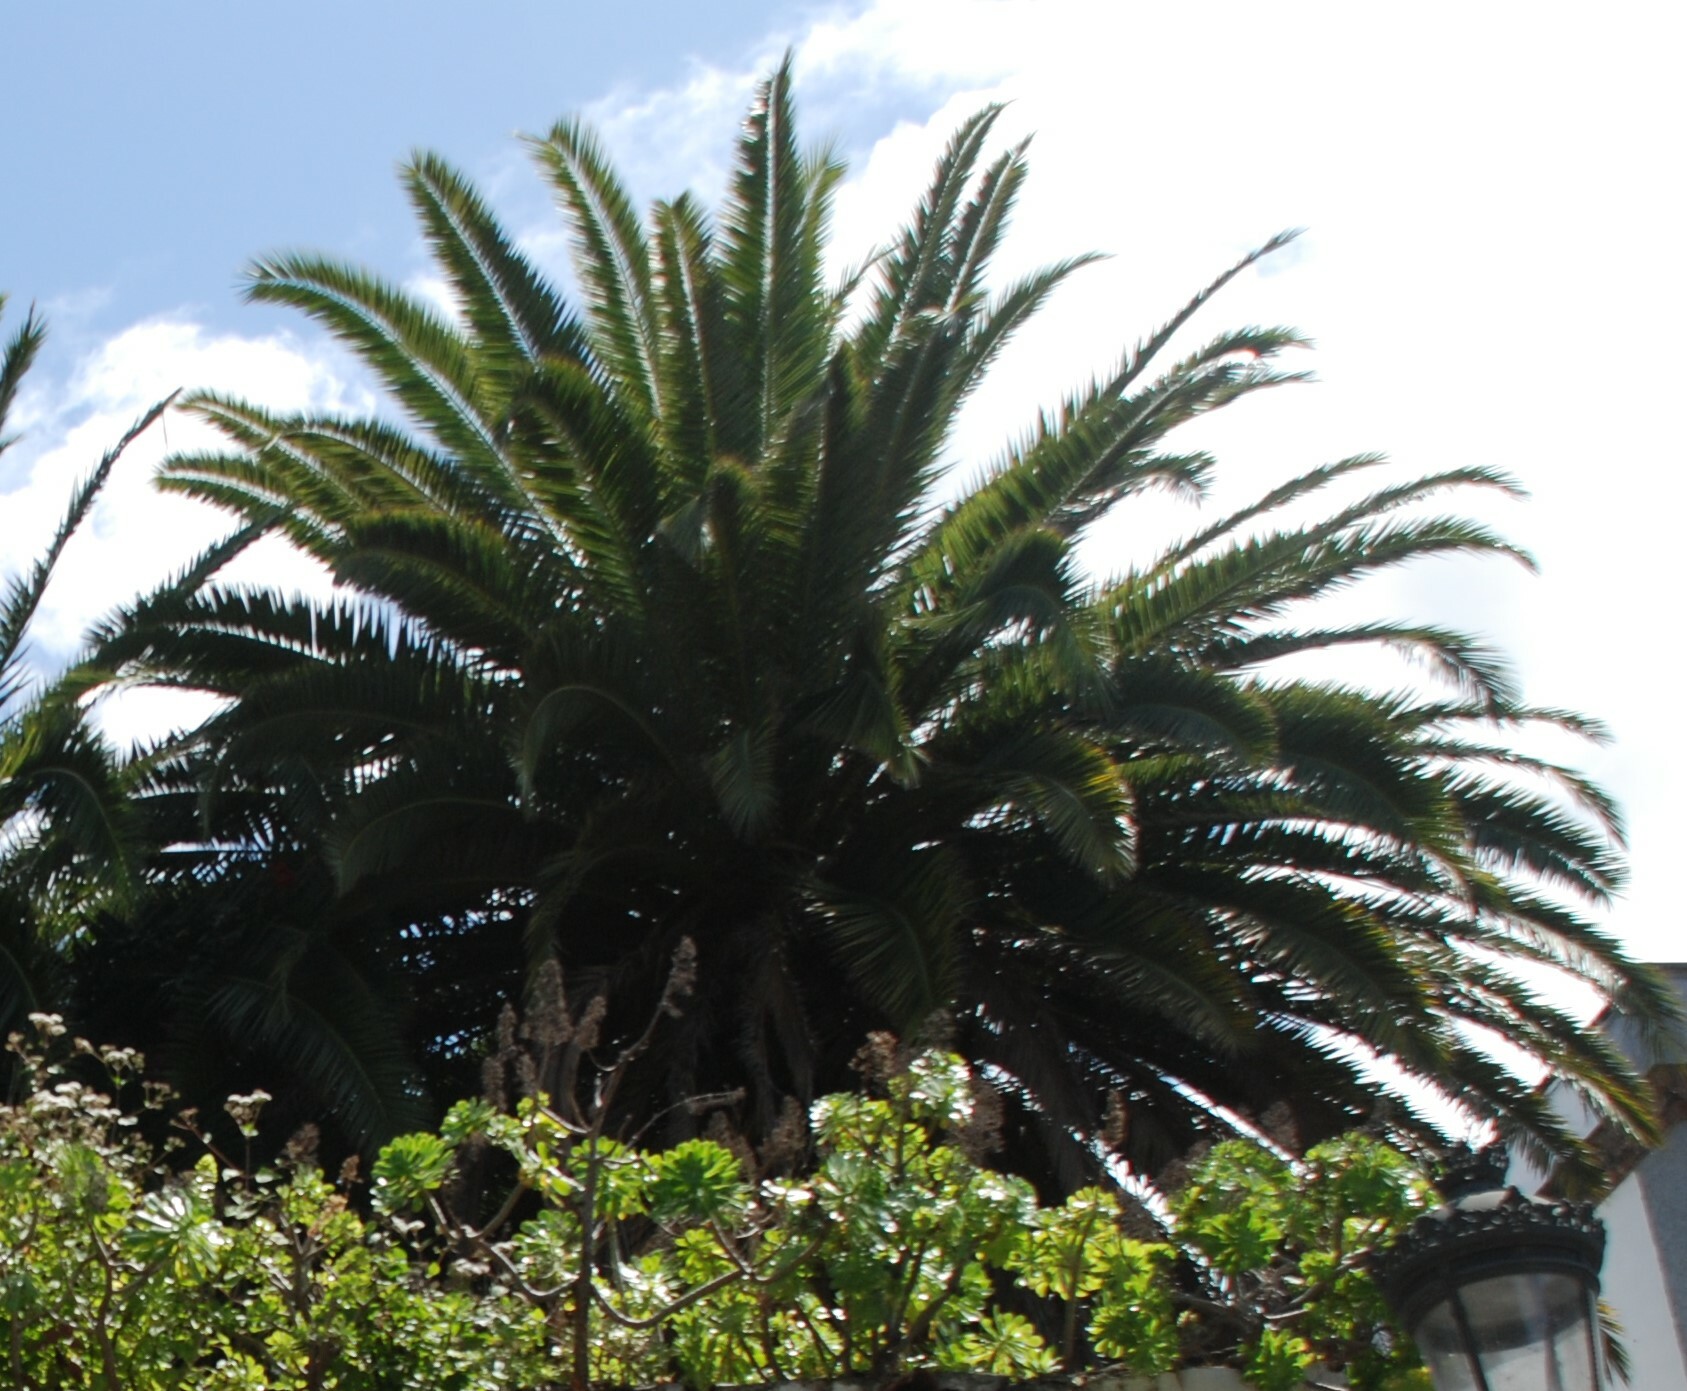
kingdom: Plantae
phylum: Tracheophyta
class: Liliopsida
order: Arecales
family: Arecaceae
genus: Phoenix
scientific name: Phoenix canariensis
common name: Canary island date palm
